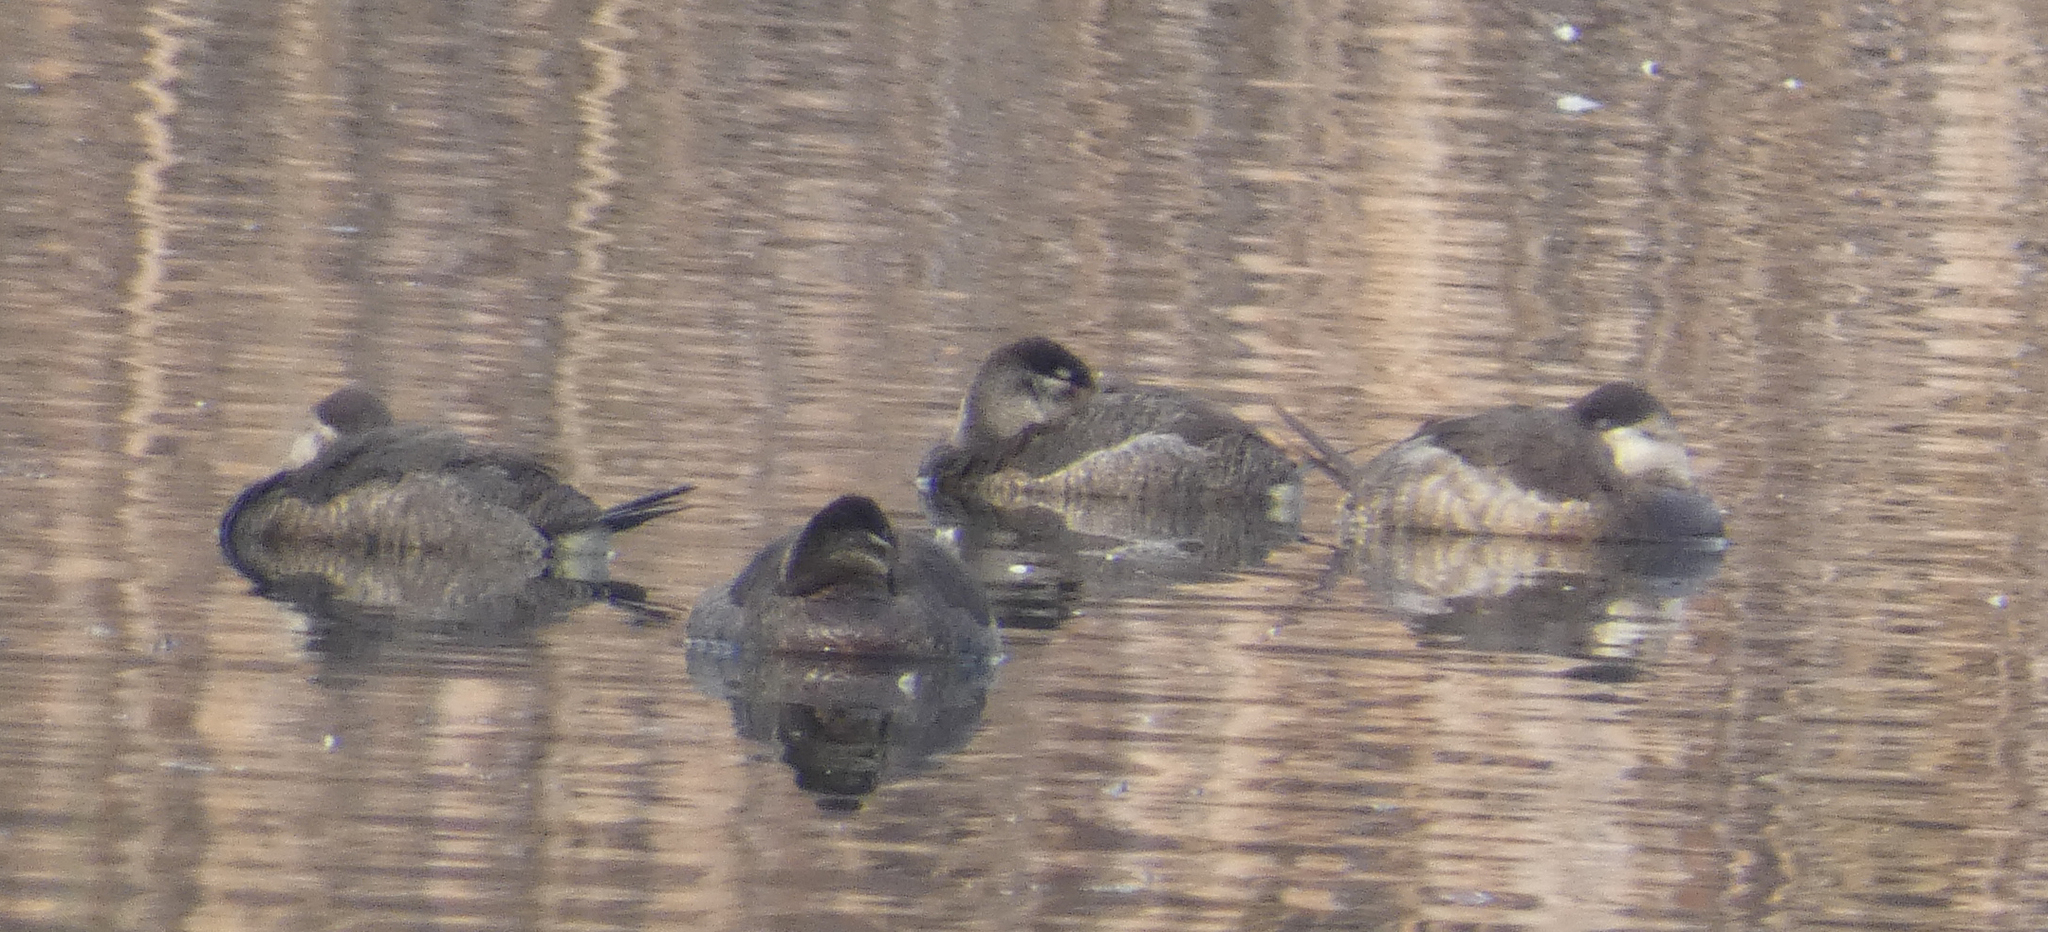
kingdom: Animalia
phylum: Chordata
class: Aves
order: Anseriformes
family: Anatidae
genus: Oxyura
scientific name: Oxyura jamaicensis
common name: Ruddy duck
